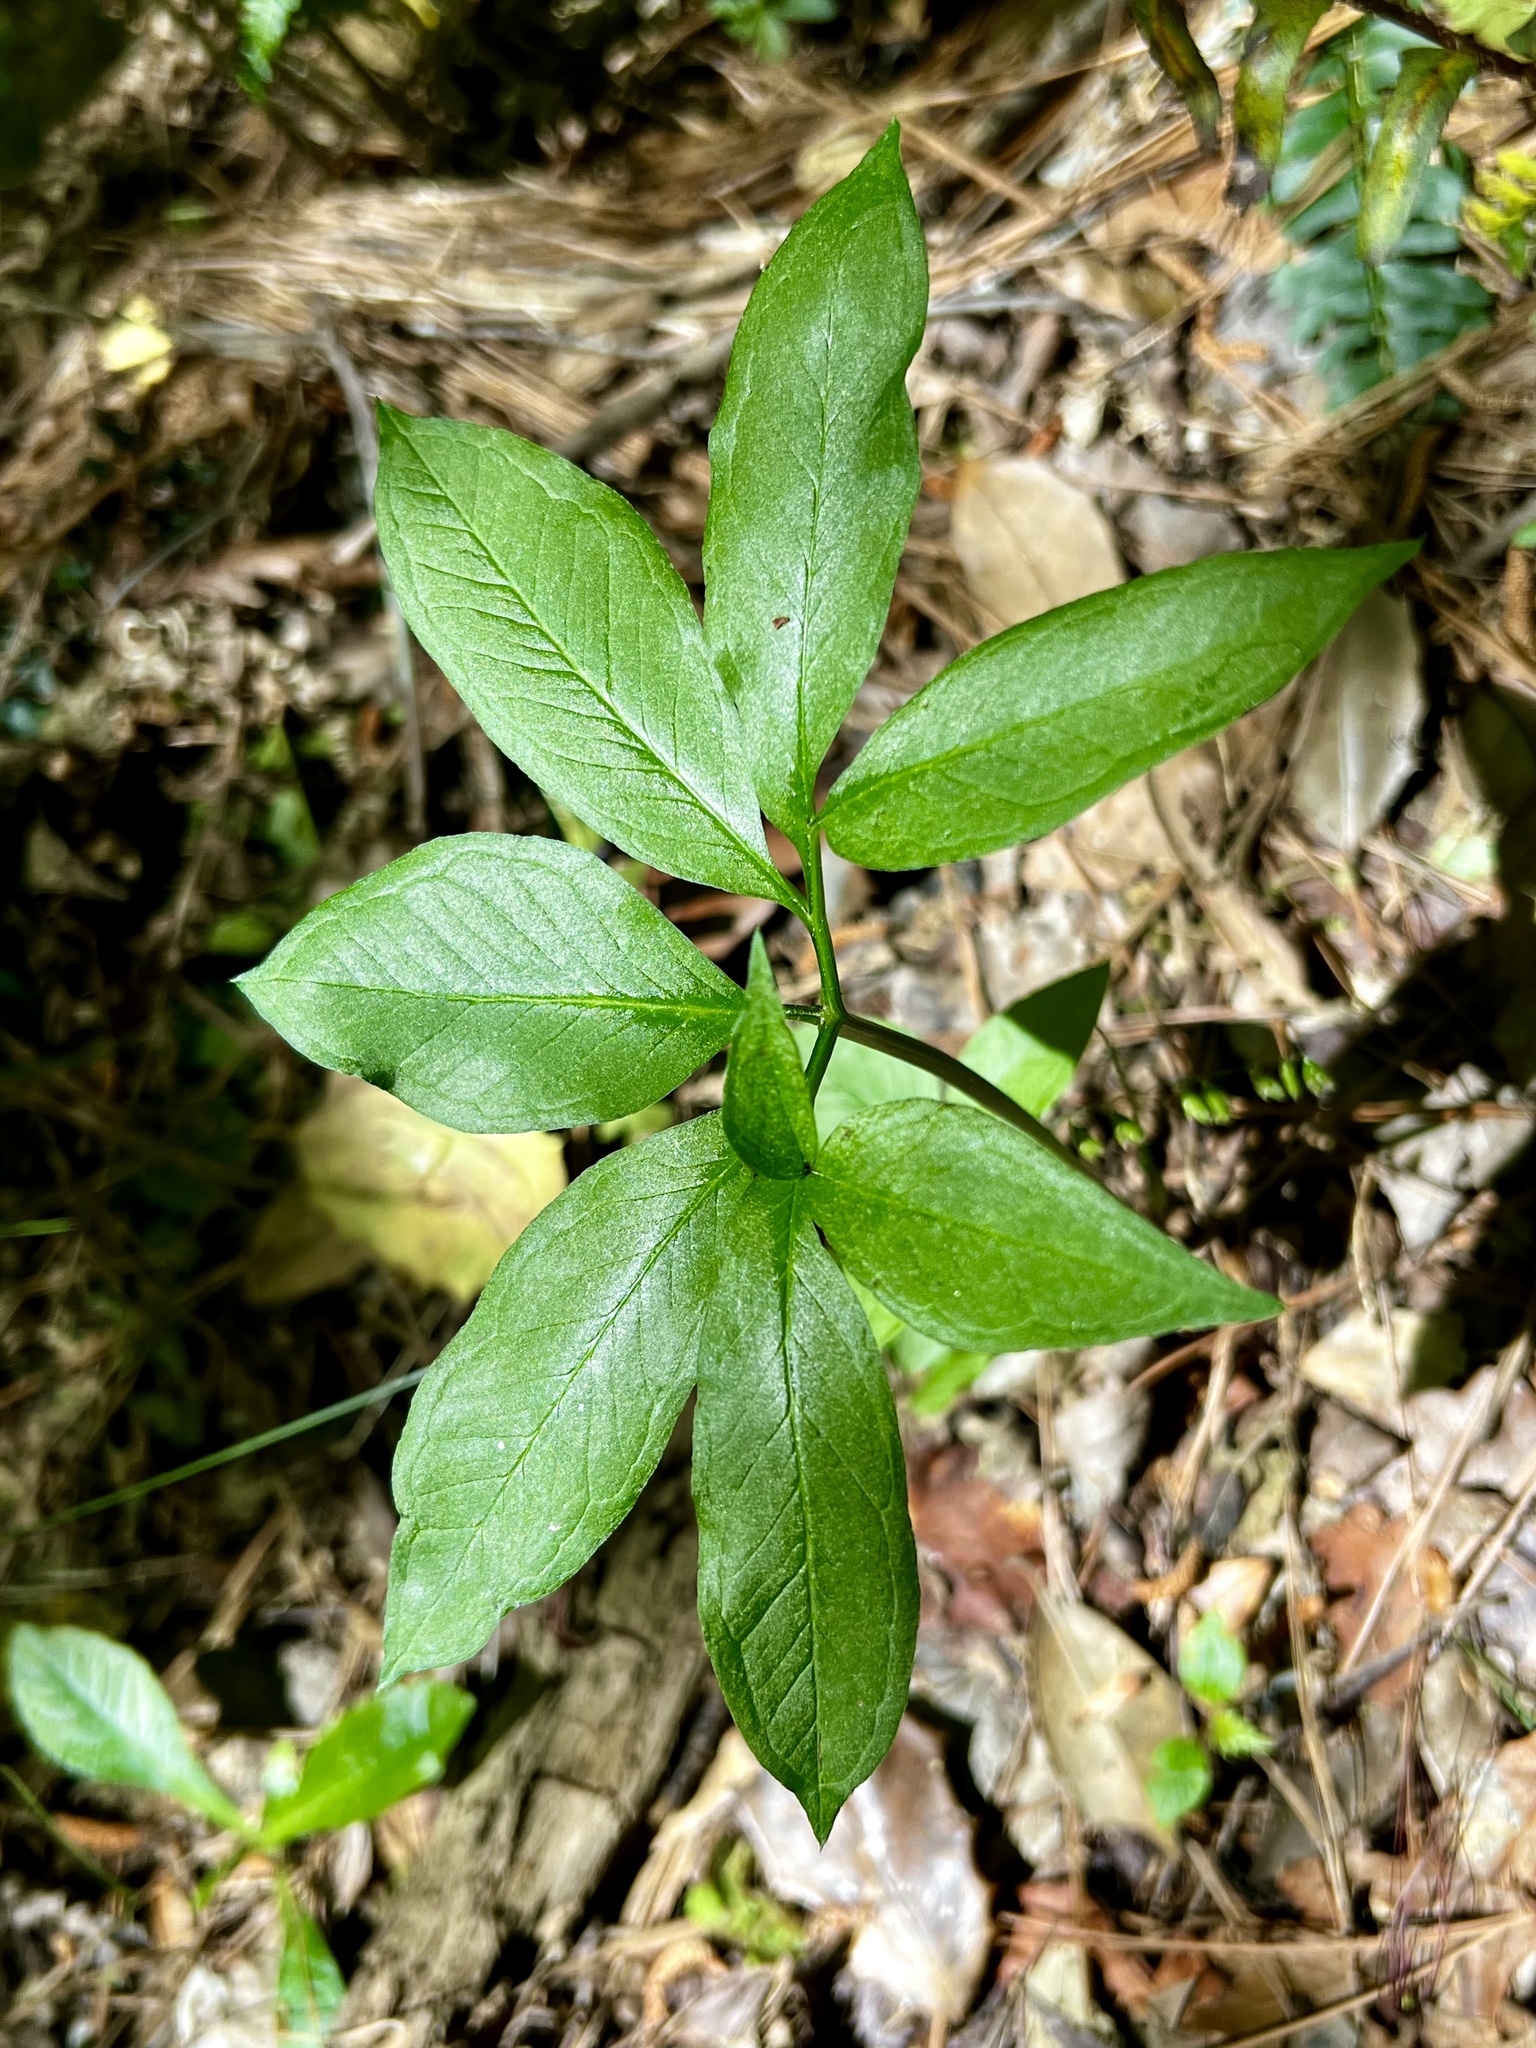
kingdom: Plantae
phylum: Tracheophyta
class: Liliopsida
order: Alismatales
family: Araceae
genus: Arisaema
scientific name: Arisaema dracontium
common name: Dragon-arum
